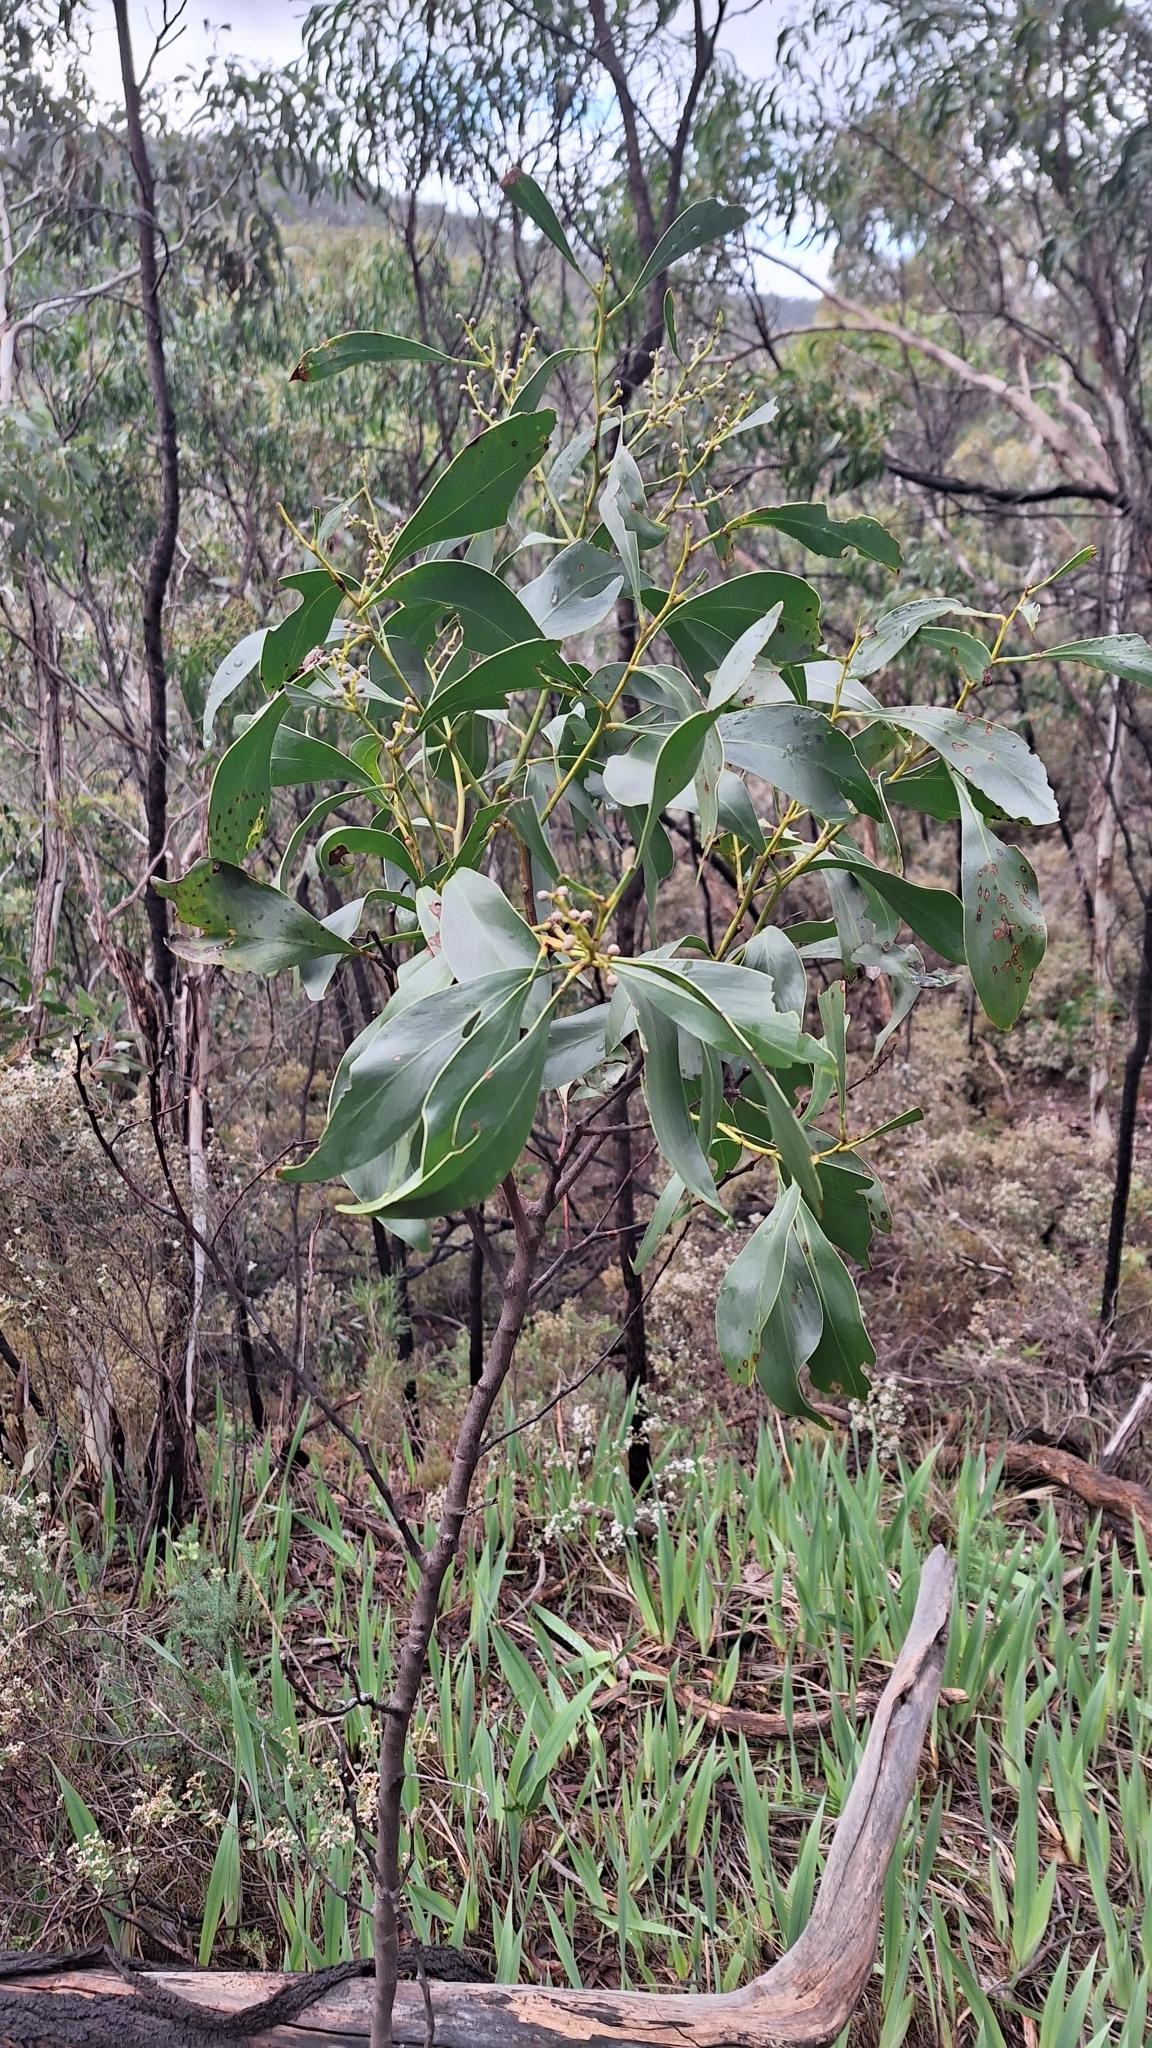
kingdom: Plantae
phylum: Tracheophyta
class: Magnoliopsida
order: Fabales
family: Fabaceae
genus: Acacia
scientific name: Acacia pycnantha
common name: Golden wattle
